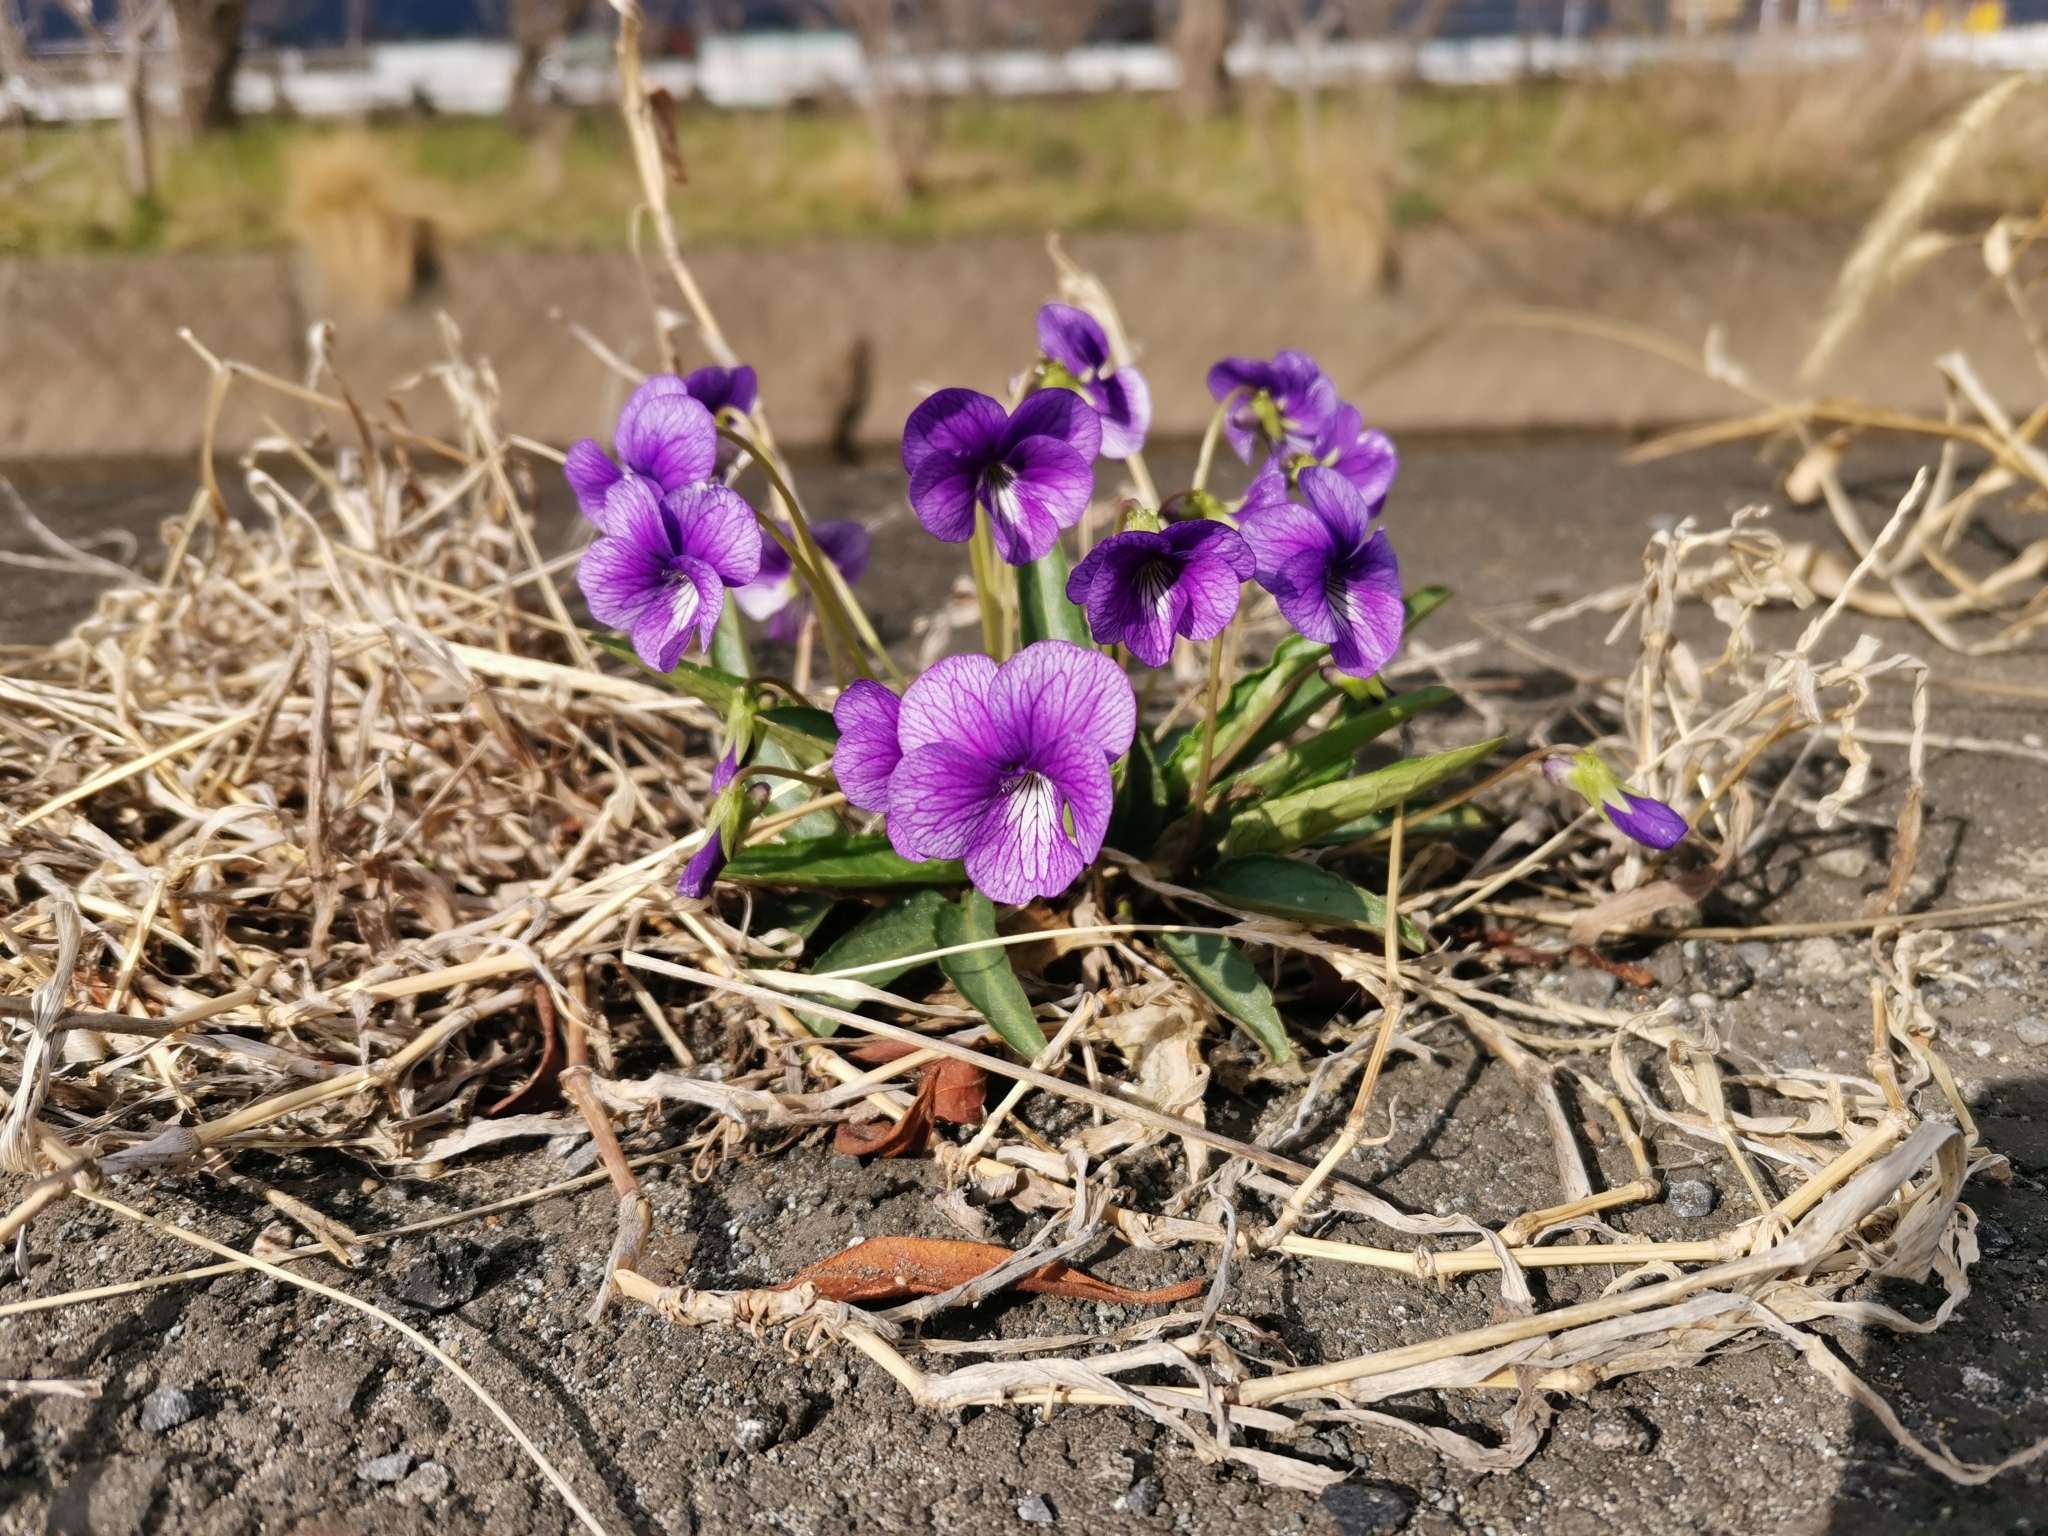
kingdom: Plantae
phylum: Tracheophyta
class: Magnoliopsida
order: Malpighiales
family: Violaceae
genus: Viola
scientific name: Viola mandshurica
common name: Manchuria violet
